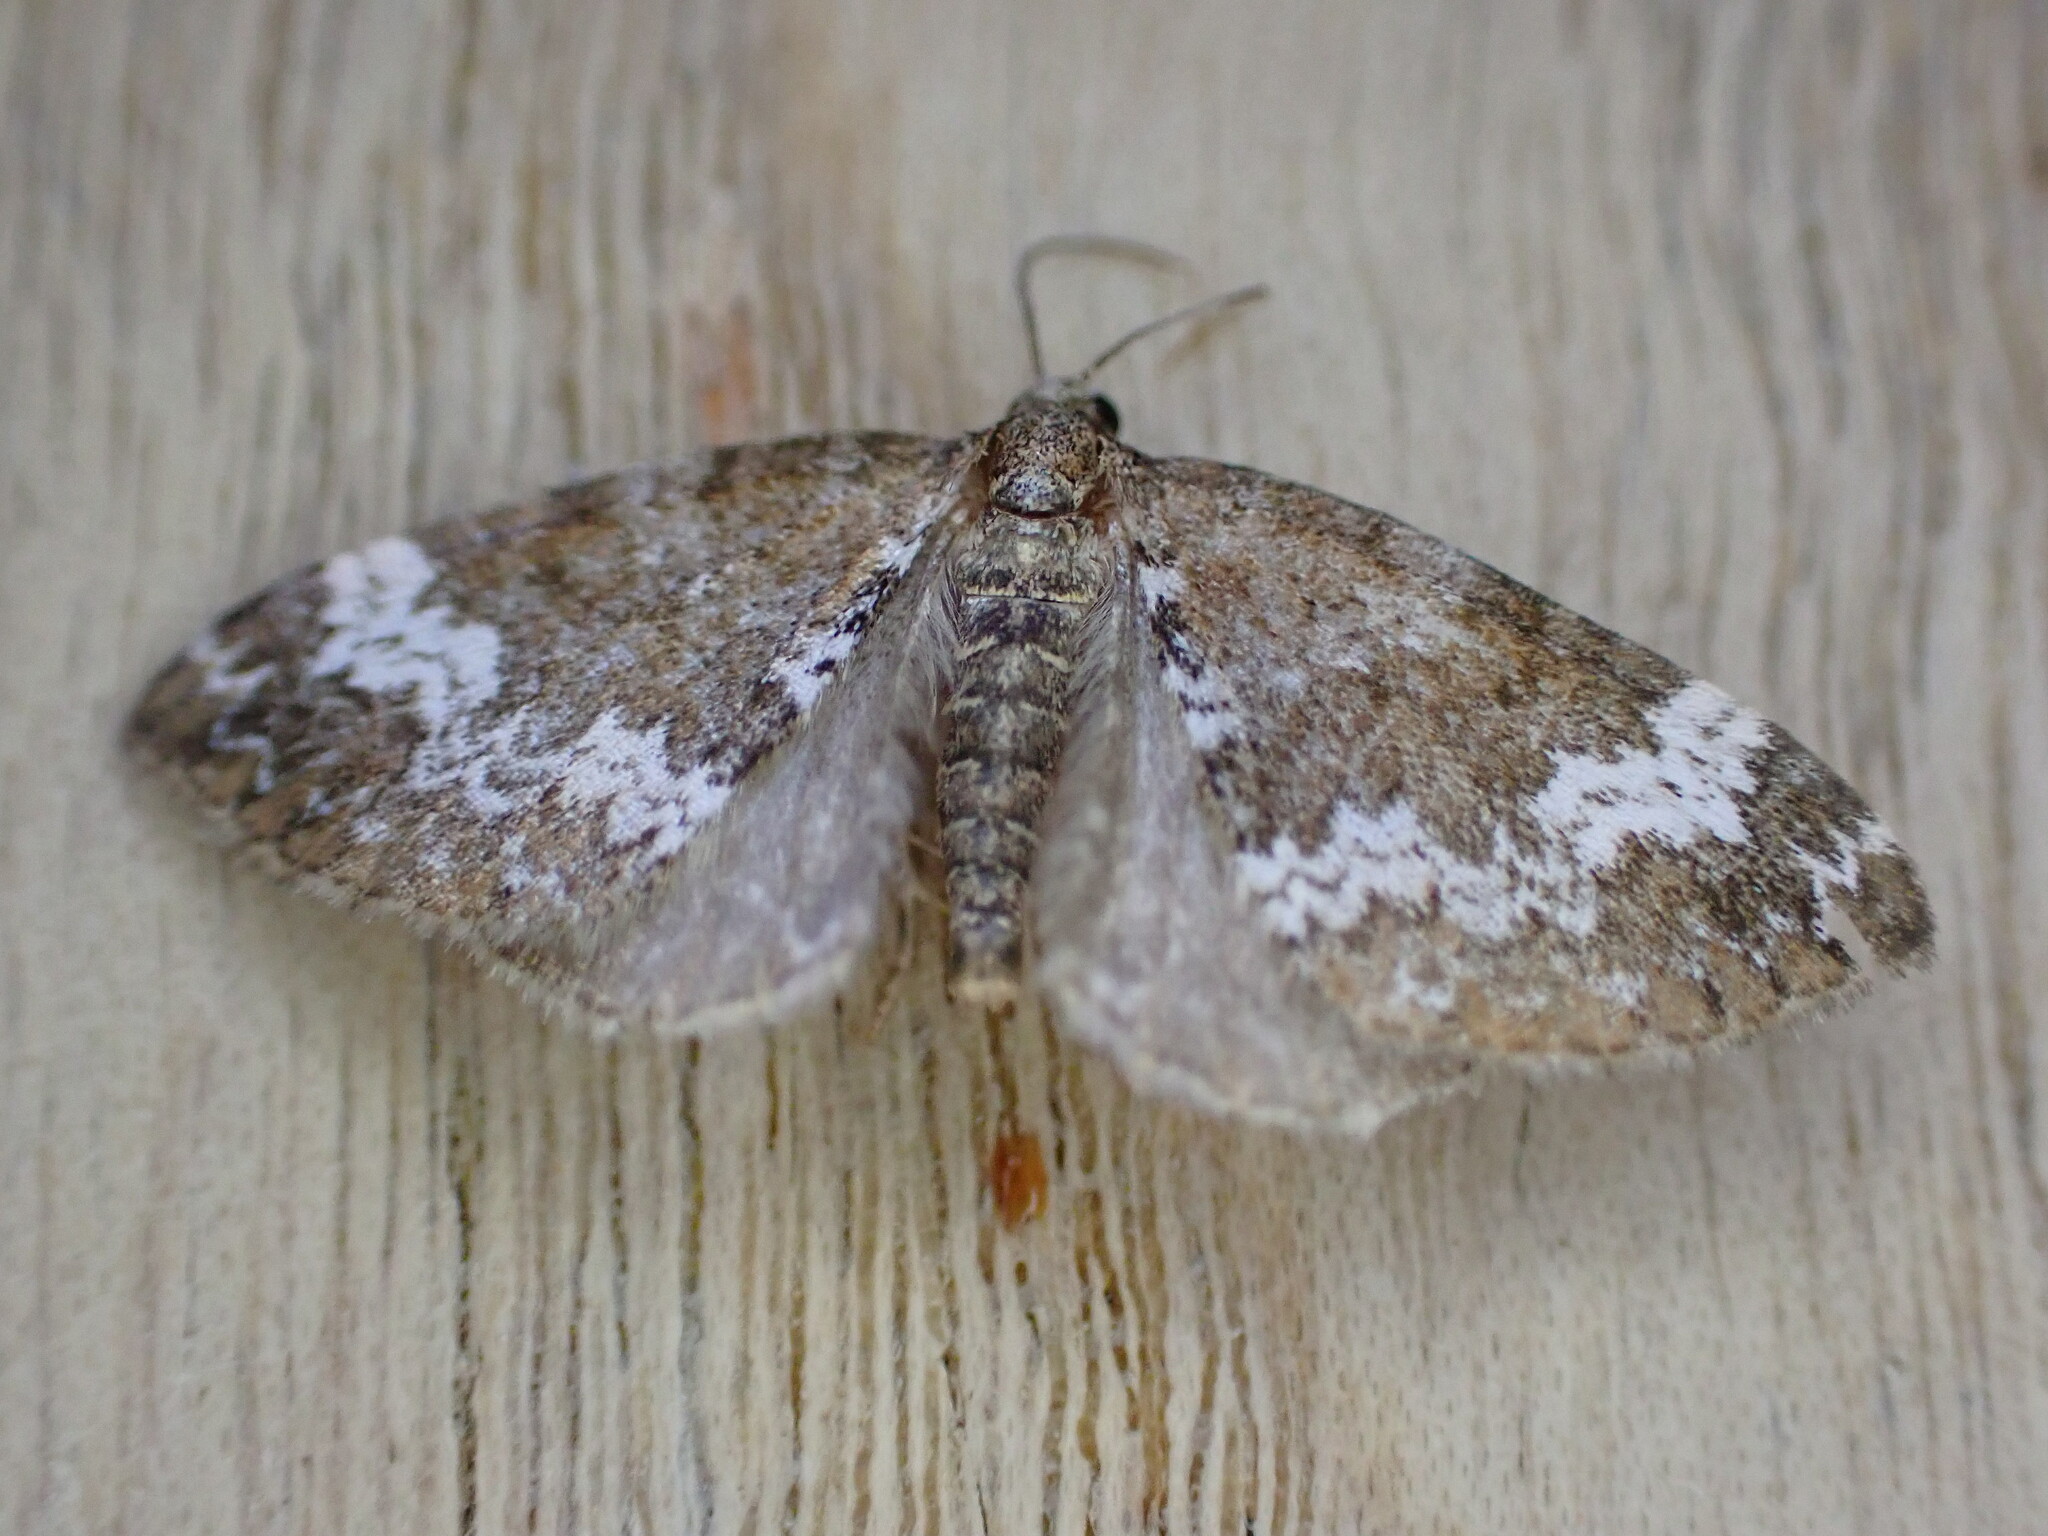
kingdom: Animalia
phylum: Arthropoda
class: Insecta
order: Lepidoptera
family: Geometridae
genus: Perizoma
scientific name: Perizoma alchemillata
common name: Small rivulet
